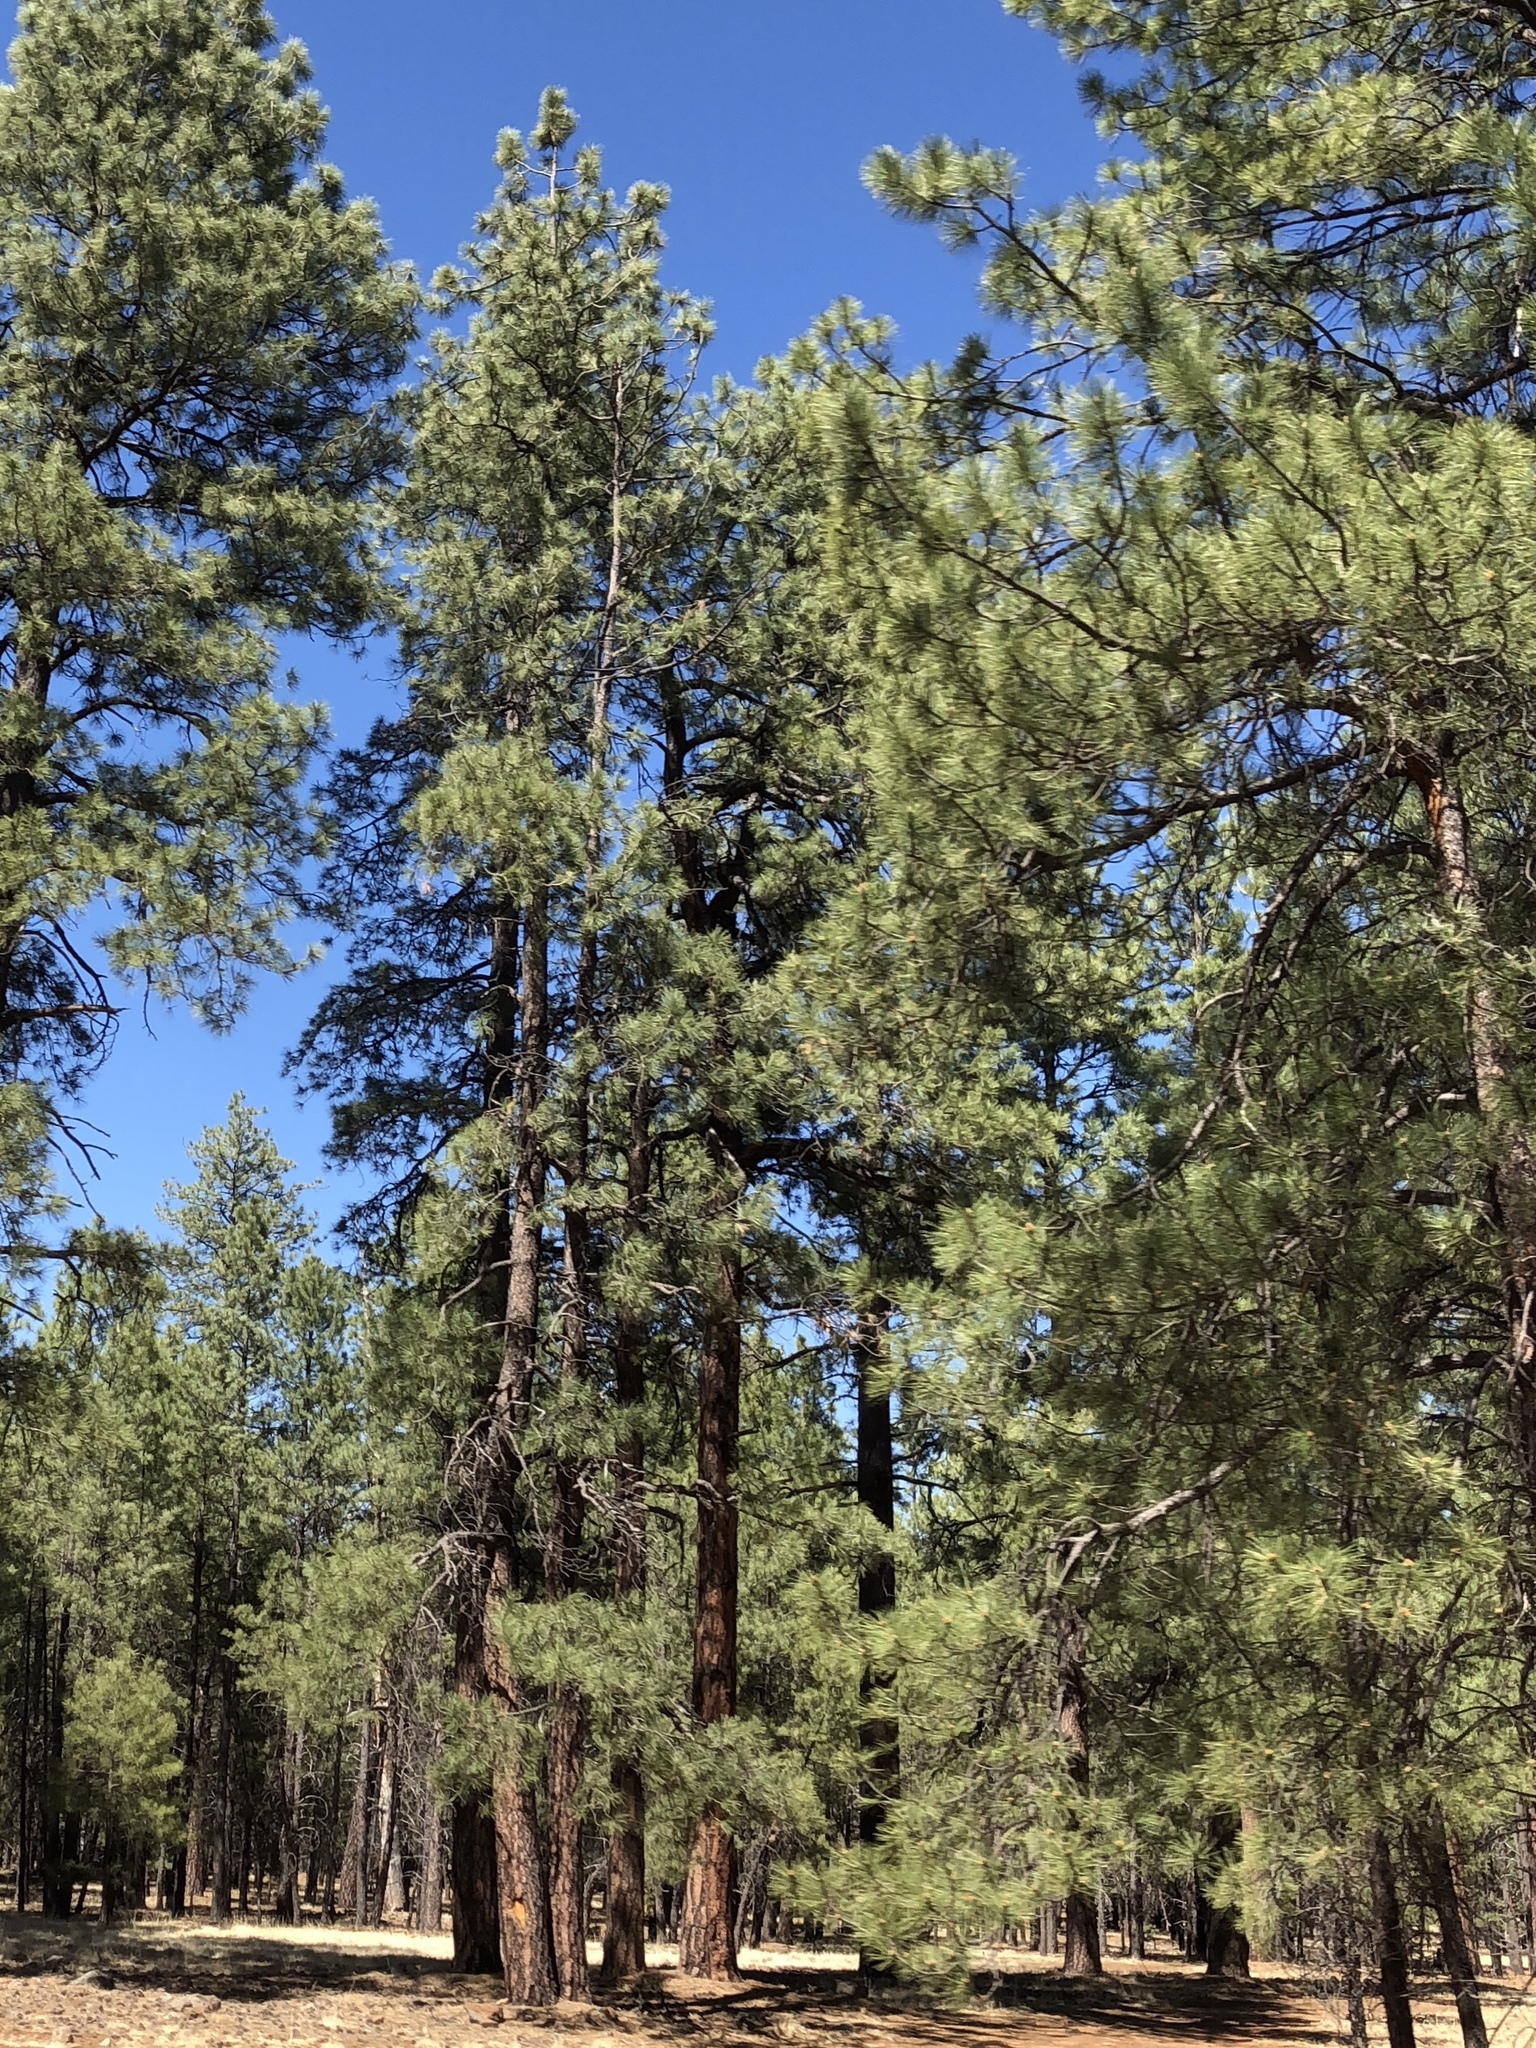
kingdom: Plantae
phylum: Tracheophyta
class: Pinopsida
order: Pinales
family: Pinaceae
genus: Pinus
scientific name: Pinus ponderosa
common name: Western yellow-pine
